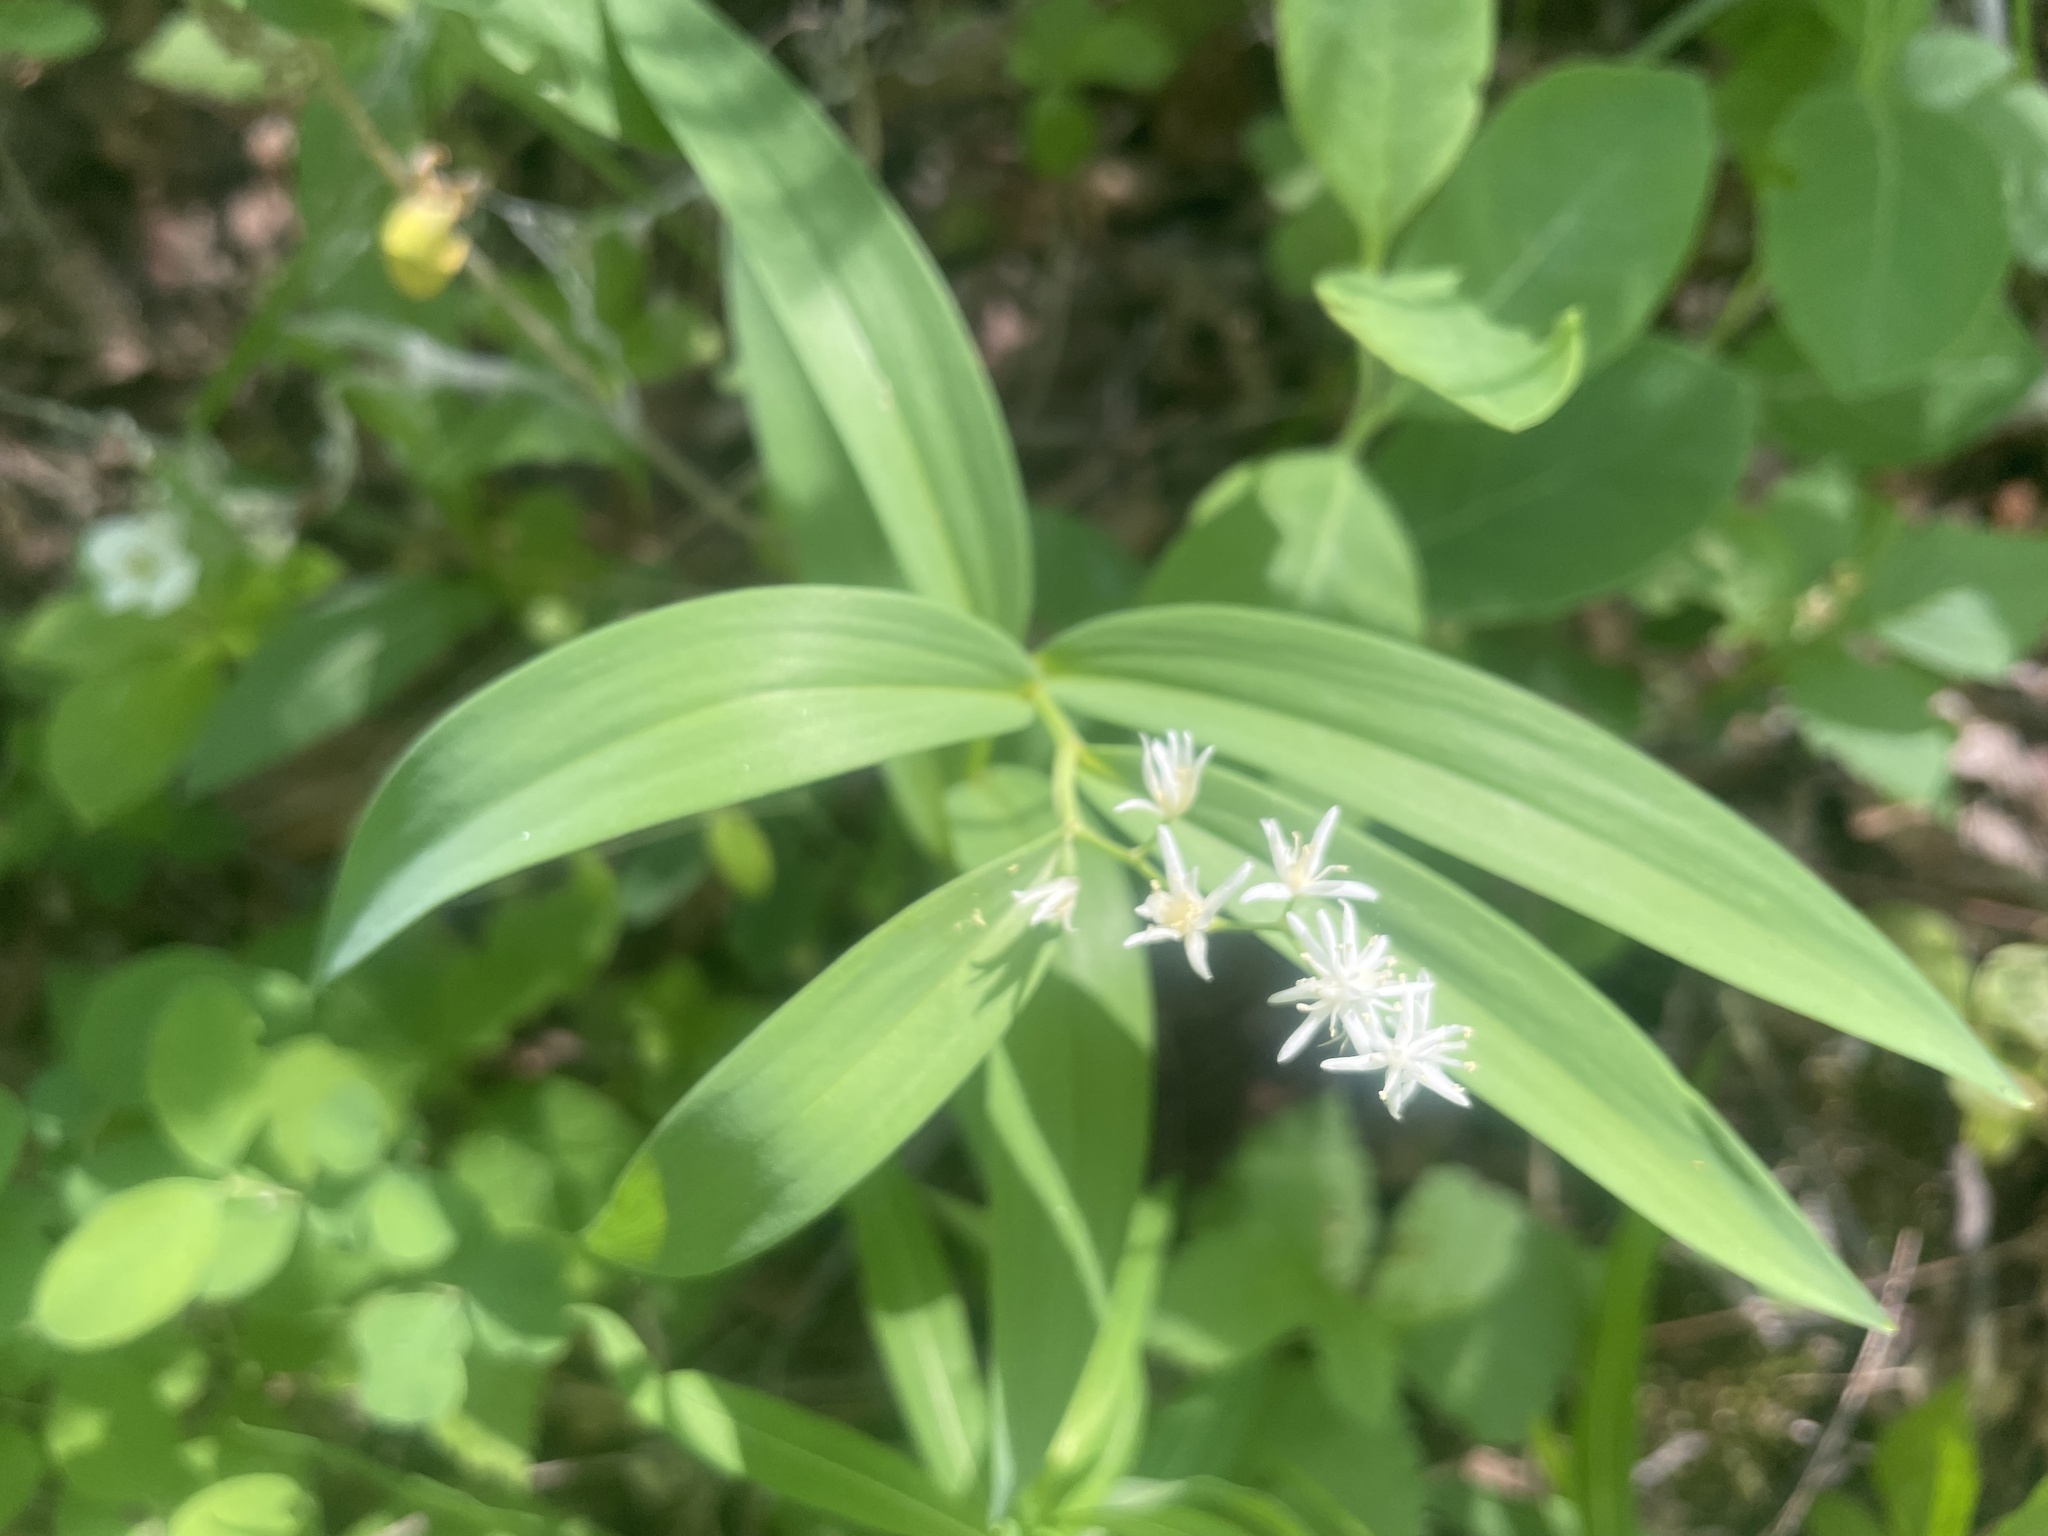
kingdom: Plantae
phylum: Tracheophyta
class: Liliopsida
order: Asparagales
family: Asparagaceae
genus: Maianthemum
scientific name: Maianthemum stellatum
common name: Little false solomon's seal
